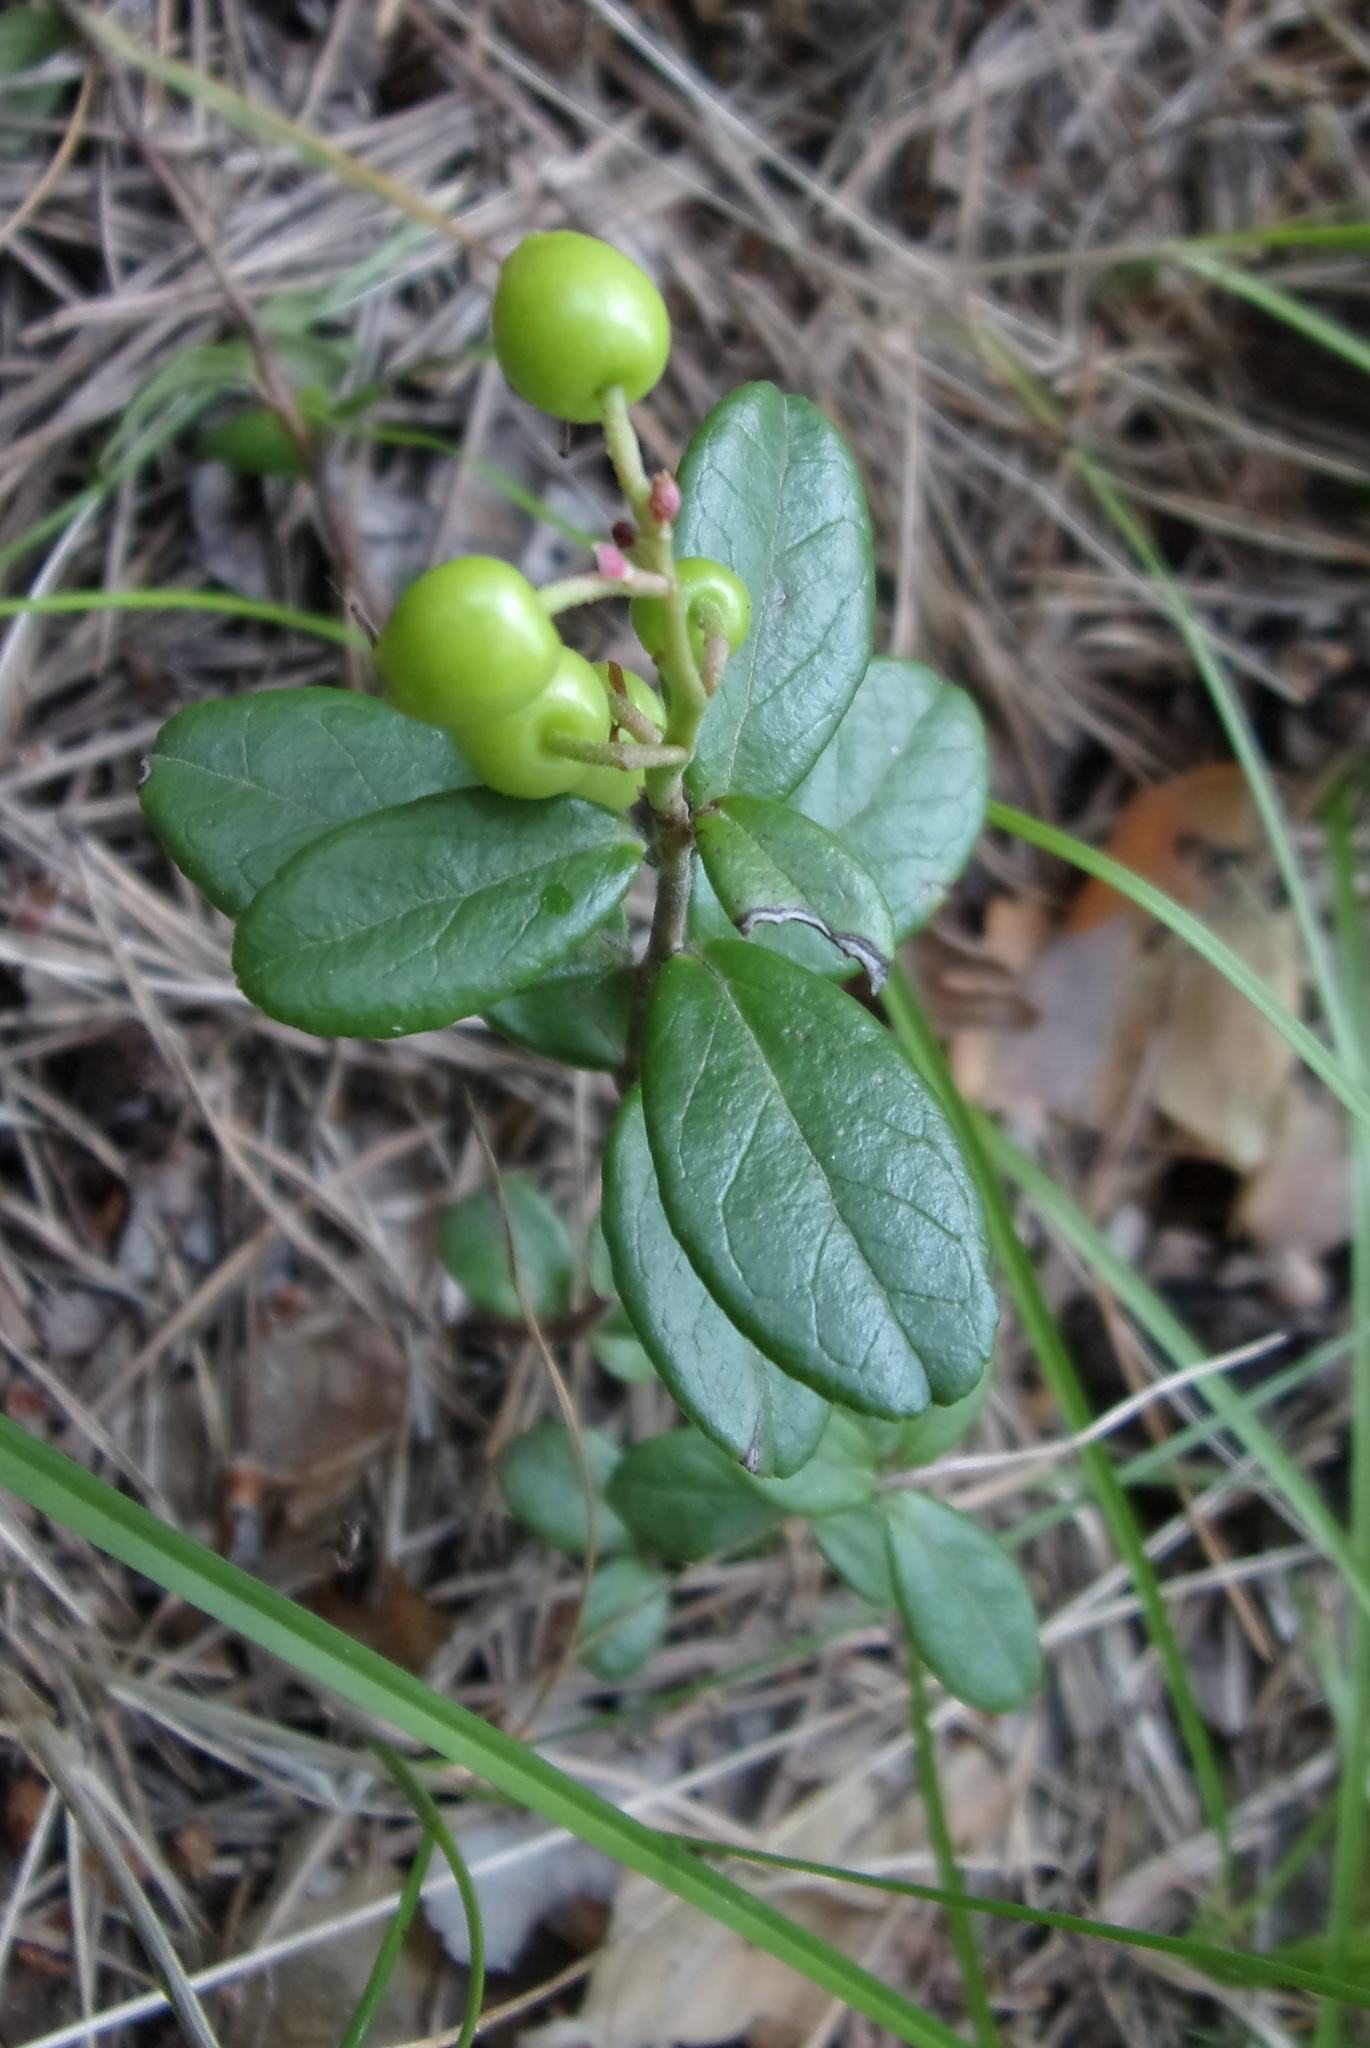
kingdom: Plantae
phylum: Tracheophyta
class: Magnoliopsida
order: Ericales
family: Ericaceae
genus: Vaccinium
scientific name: Vaccinium vitis-idaea
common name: Cowberry
